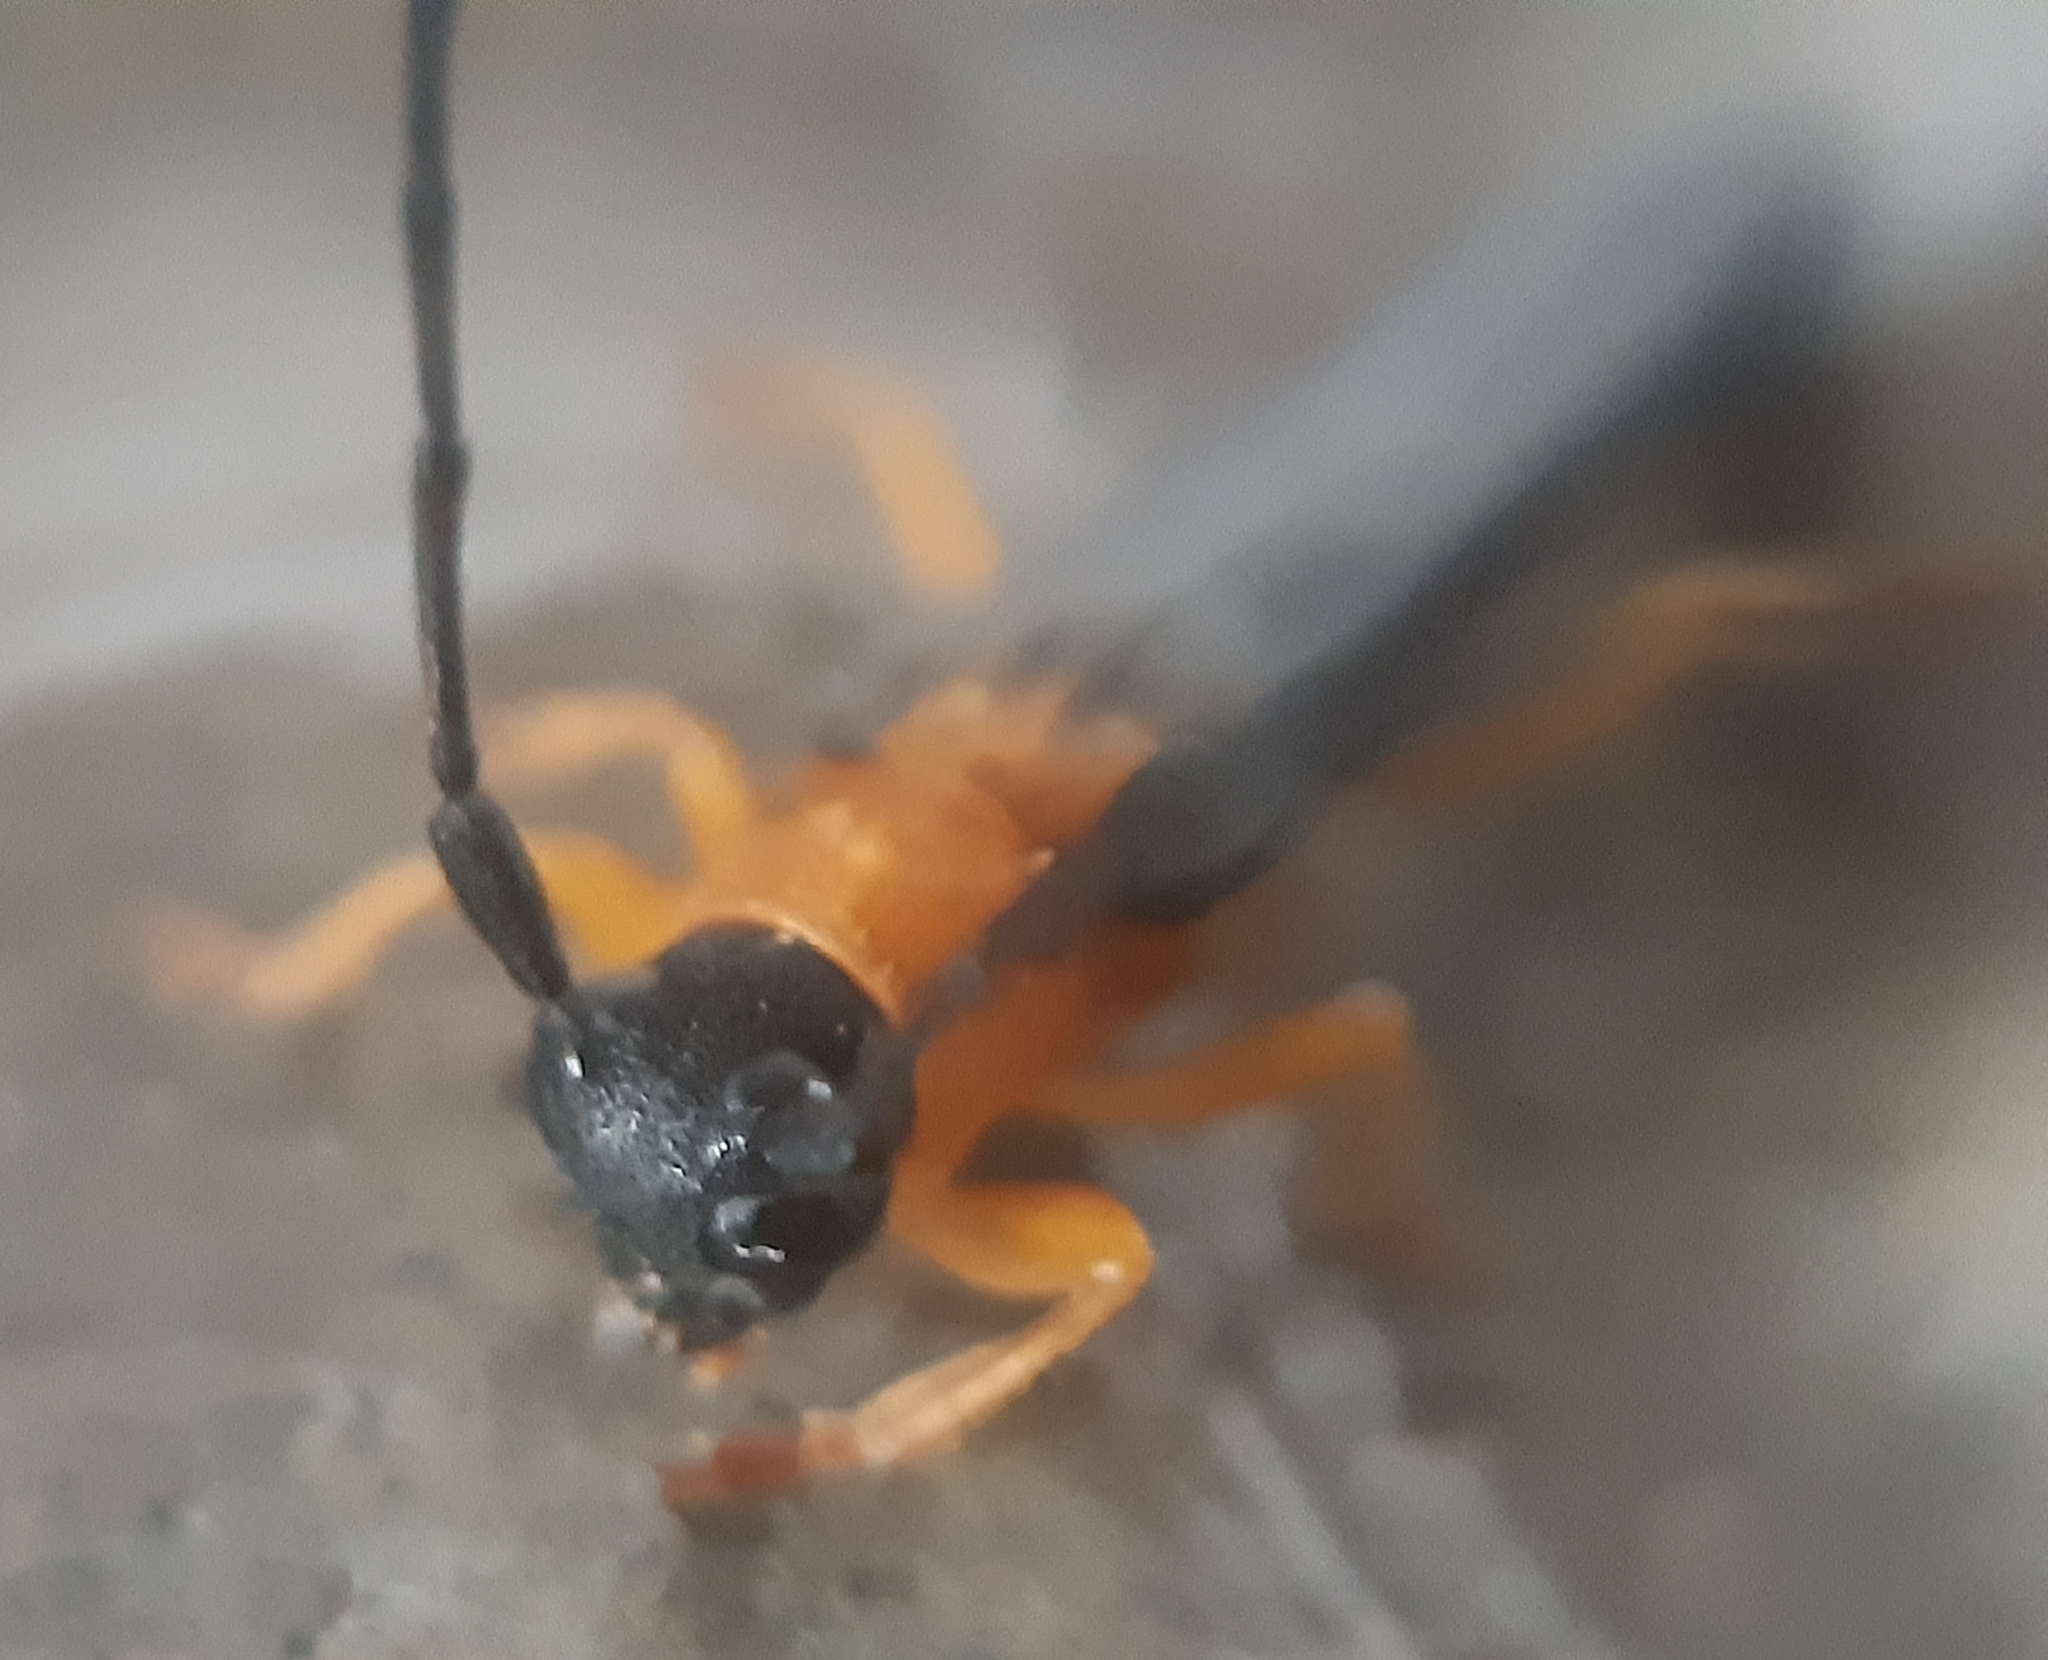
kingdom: Animalia
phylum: Arthropoda
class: Insecta
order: Coleoptera
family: Cerambycidae
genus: Oberea
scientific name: Oberea pupillata
